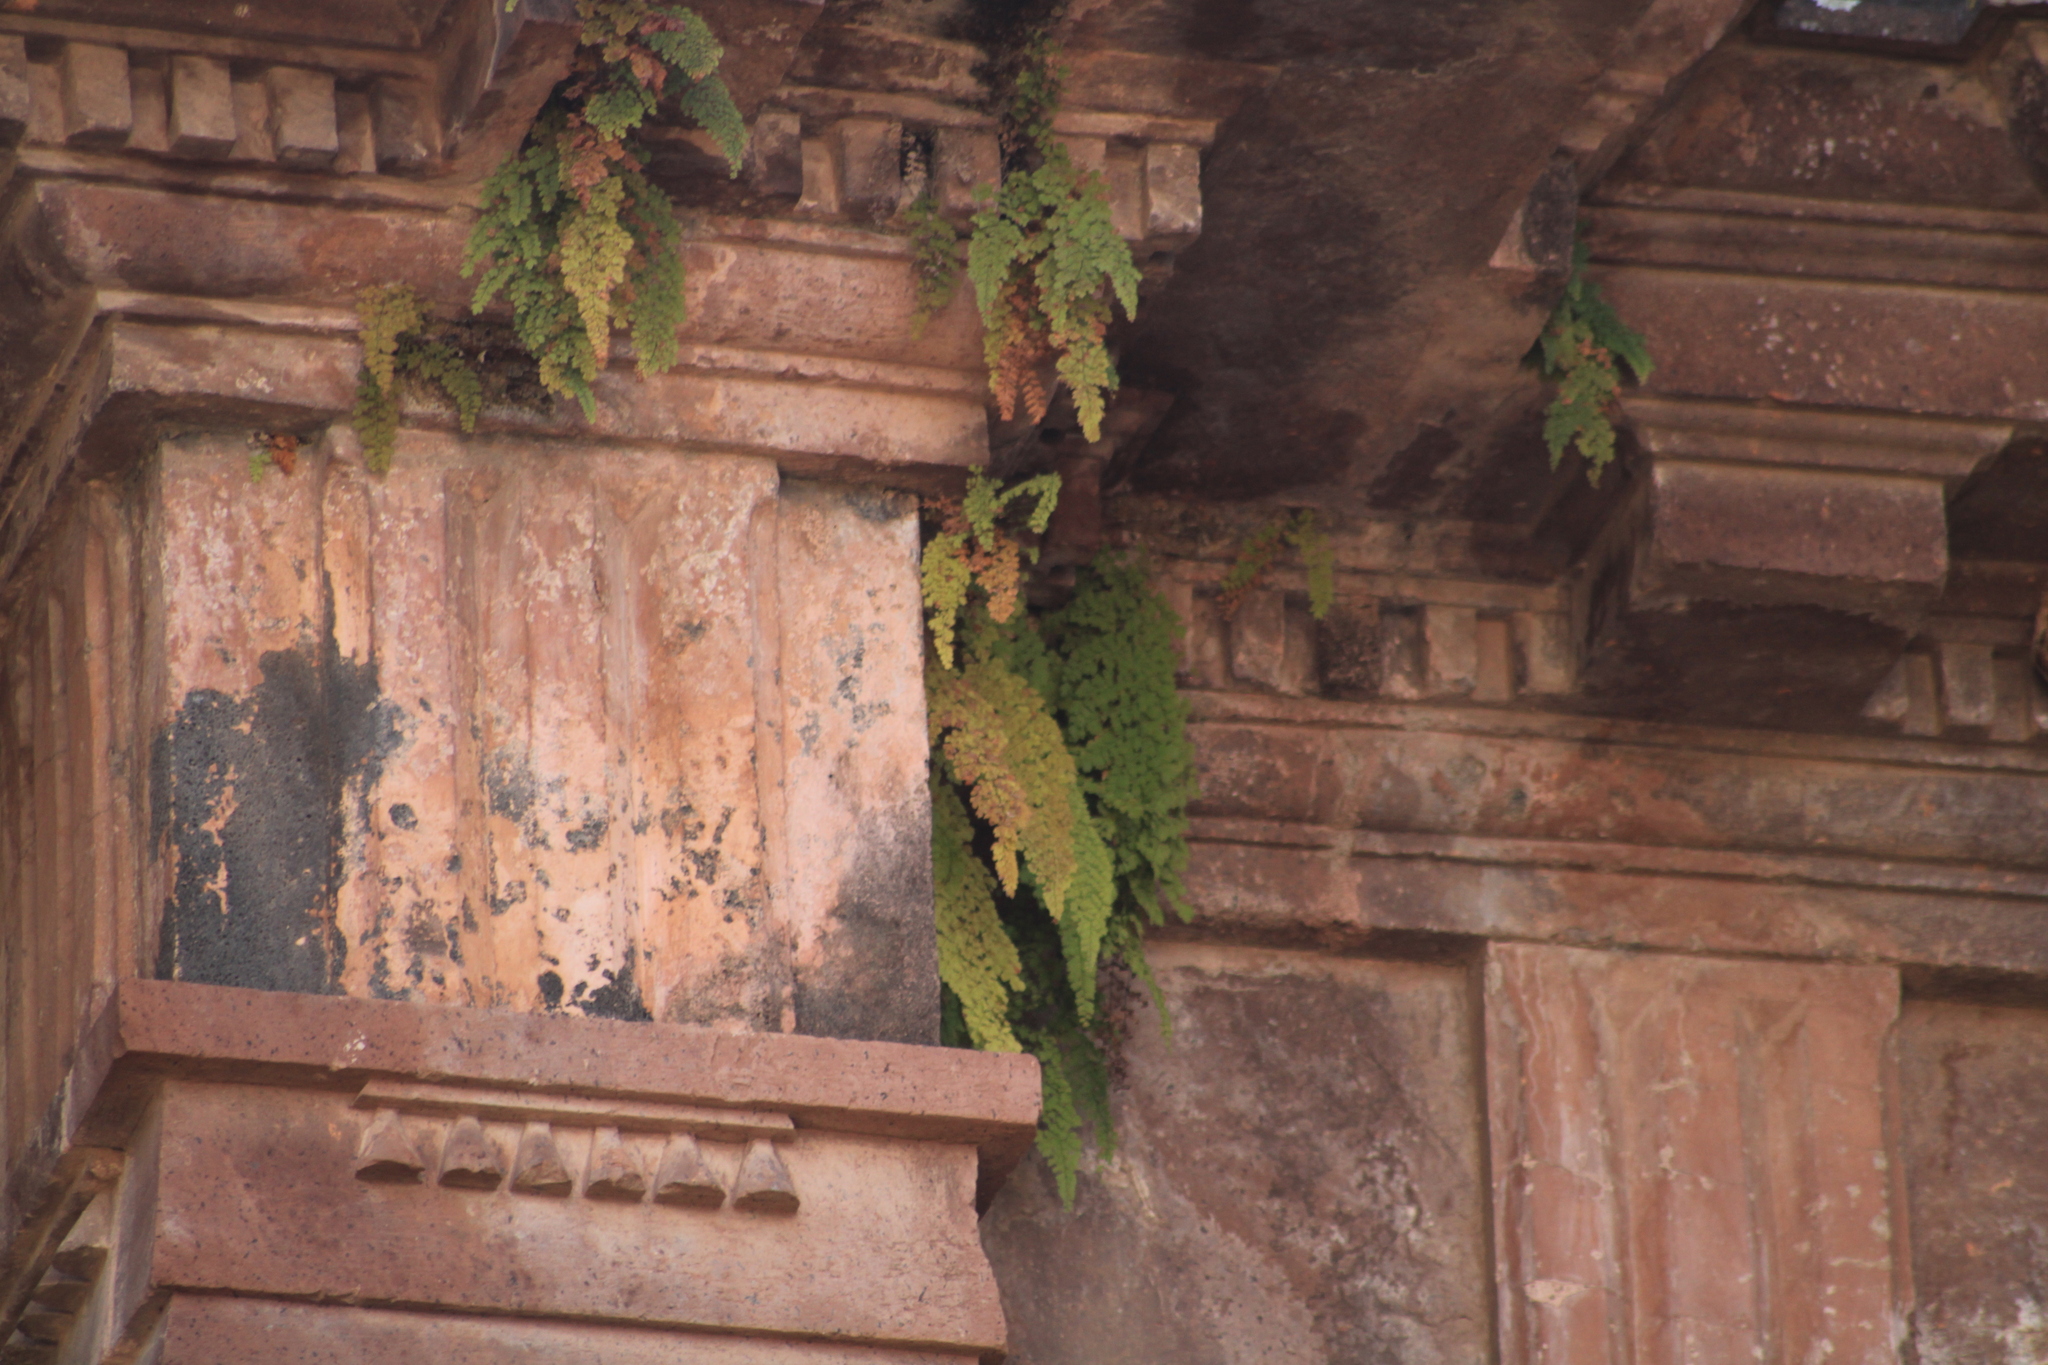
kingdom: Plantae
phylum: Tracheophyta
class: Polypodiopsida
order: Polypodiales
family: Pteridaceae
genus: Adiantum
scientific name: Adiantum concinnum
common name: Brittle maidenhair fern
